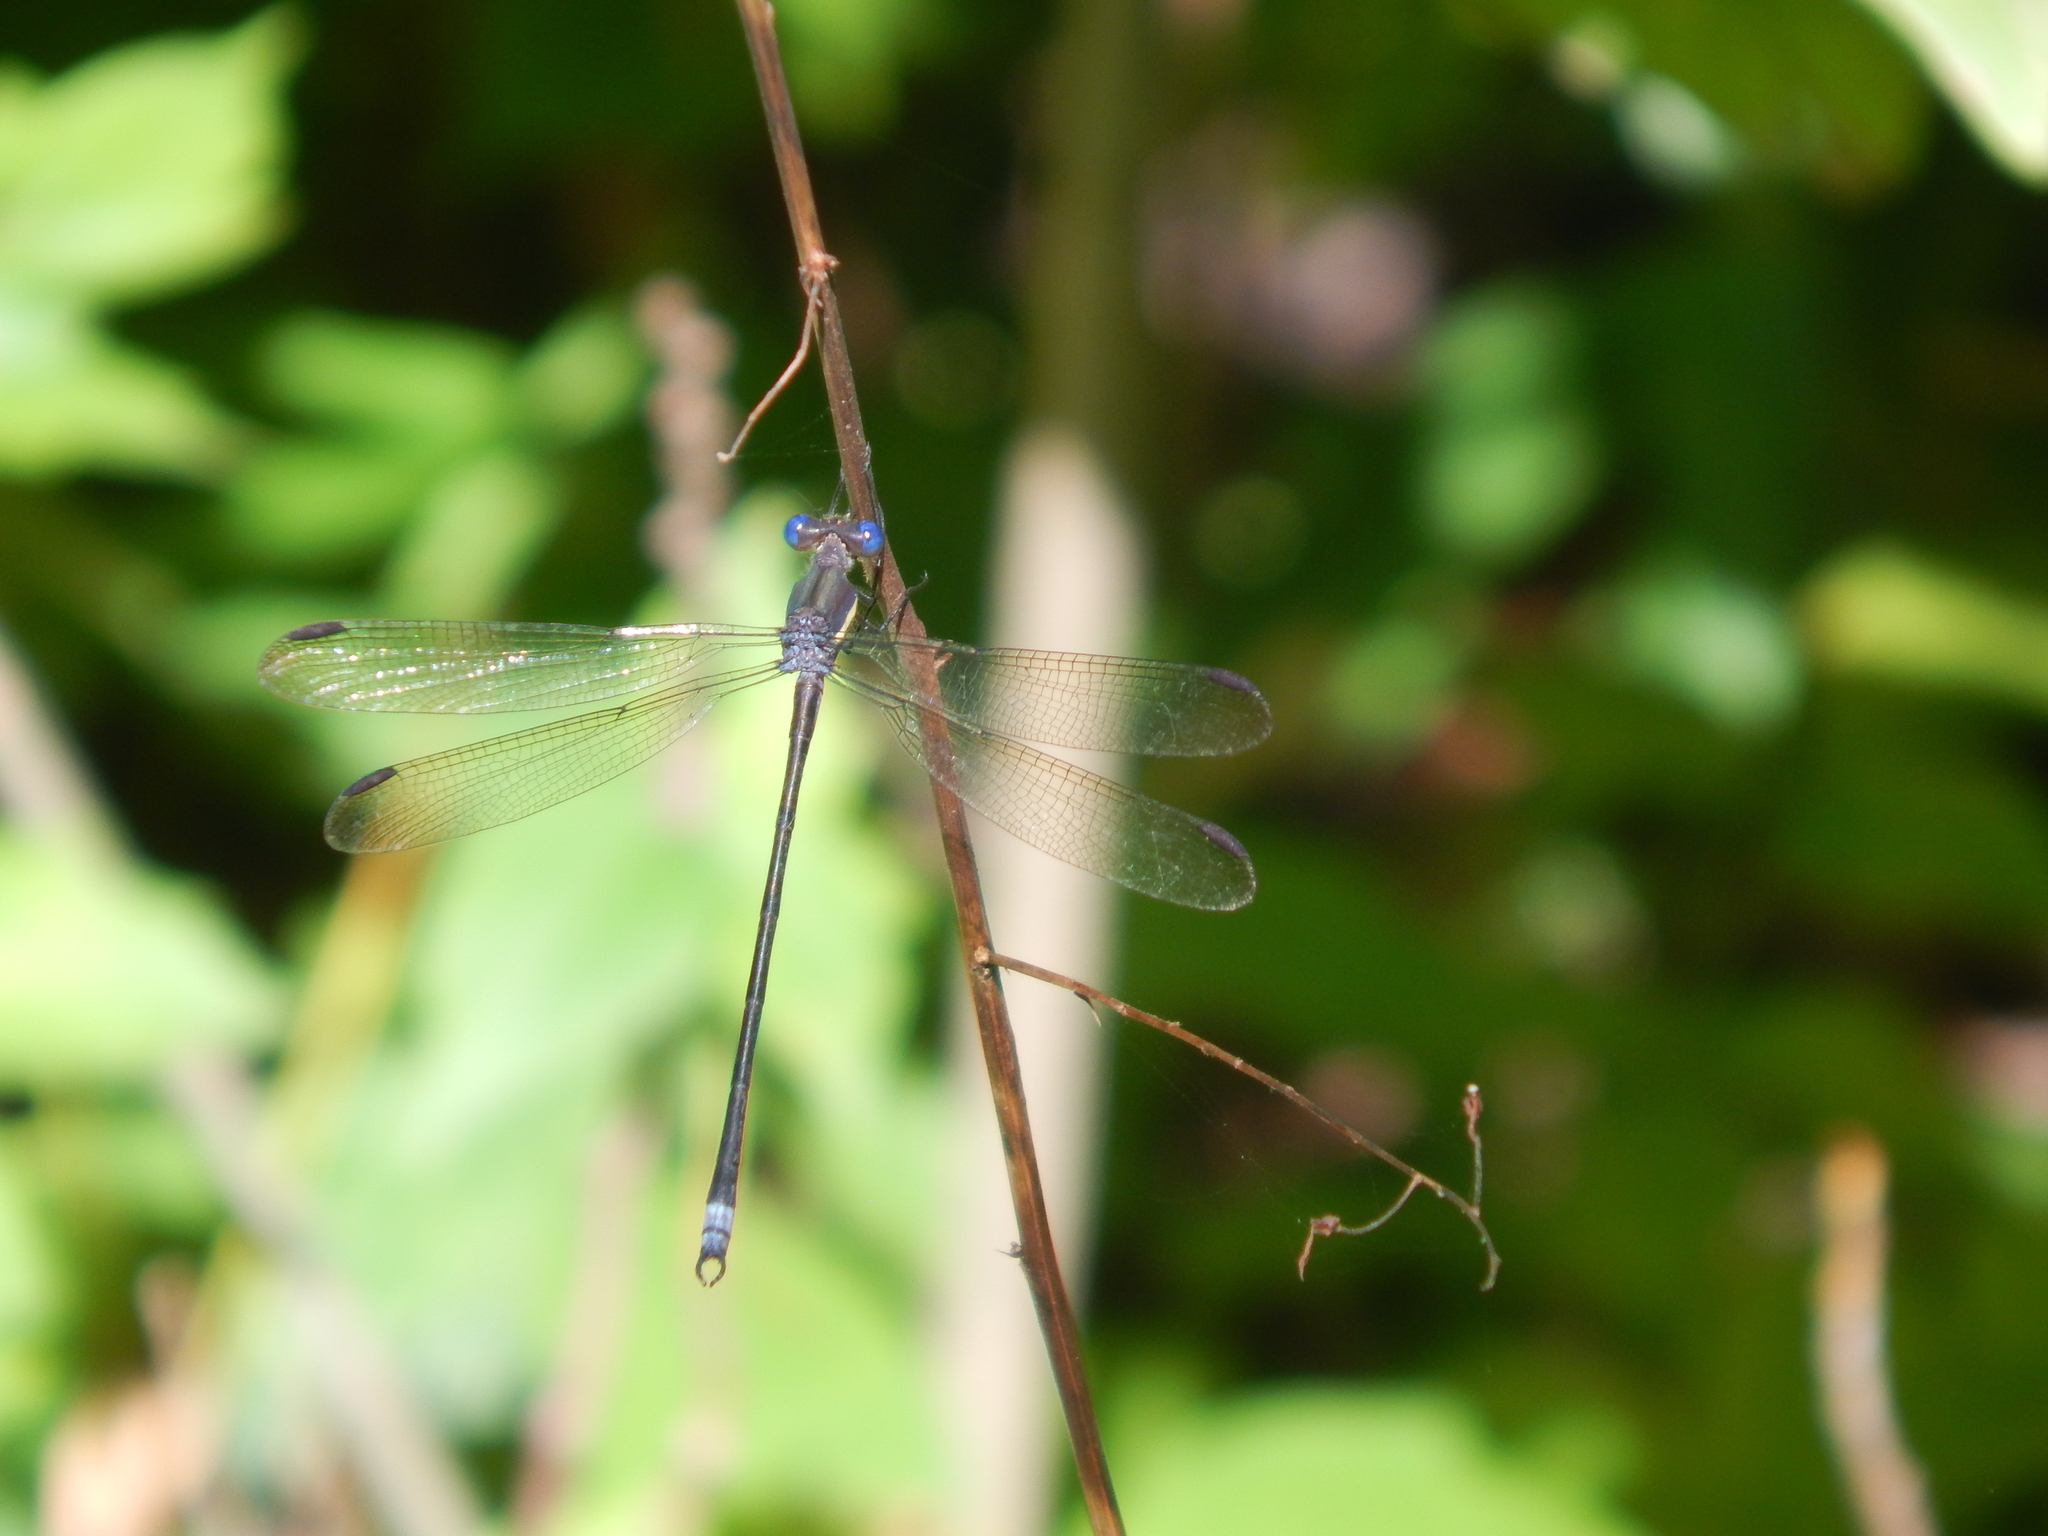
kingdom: Animalia
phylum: Arthropoda
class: Insecta
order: Odonata
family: Lestidae
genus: Archilestes
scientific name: Archilestes grandis
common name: Great spreadwing
